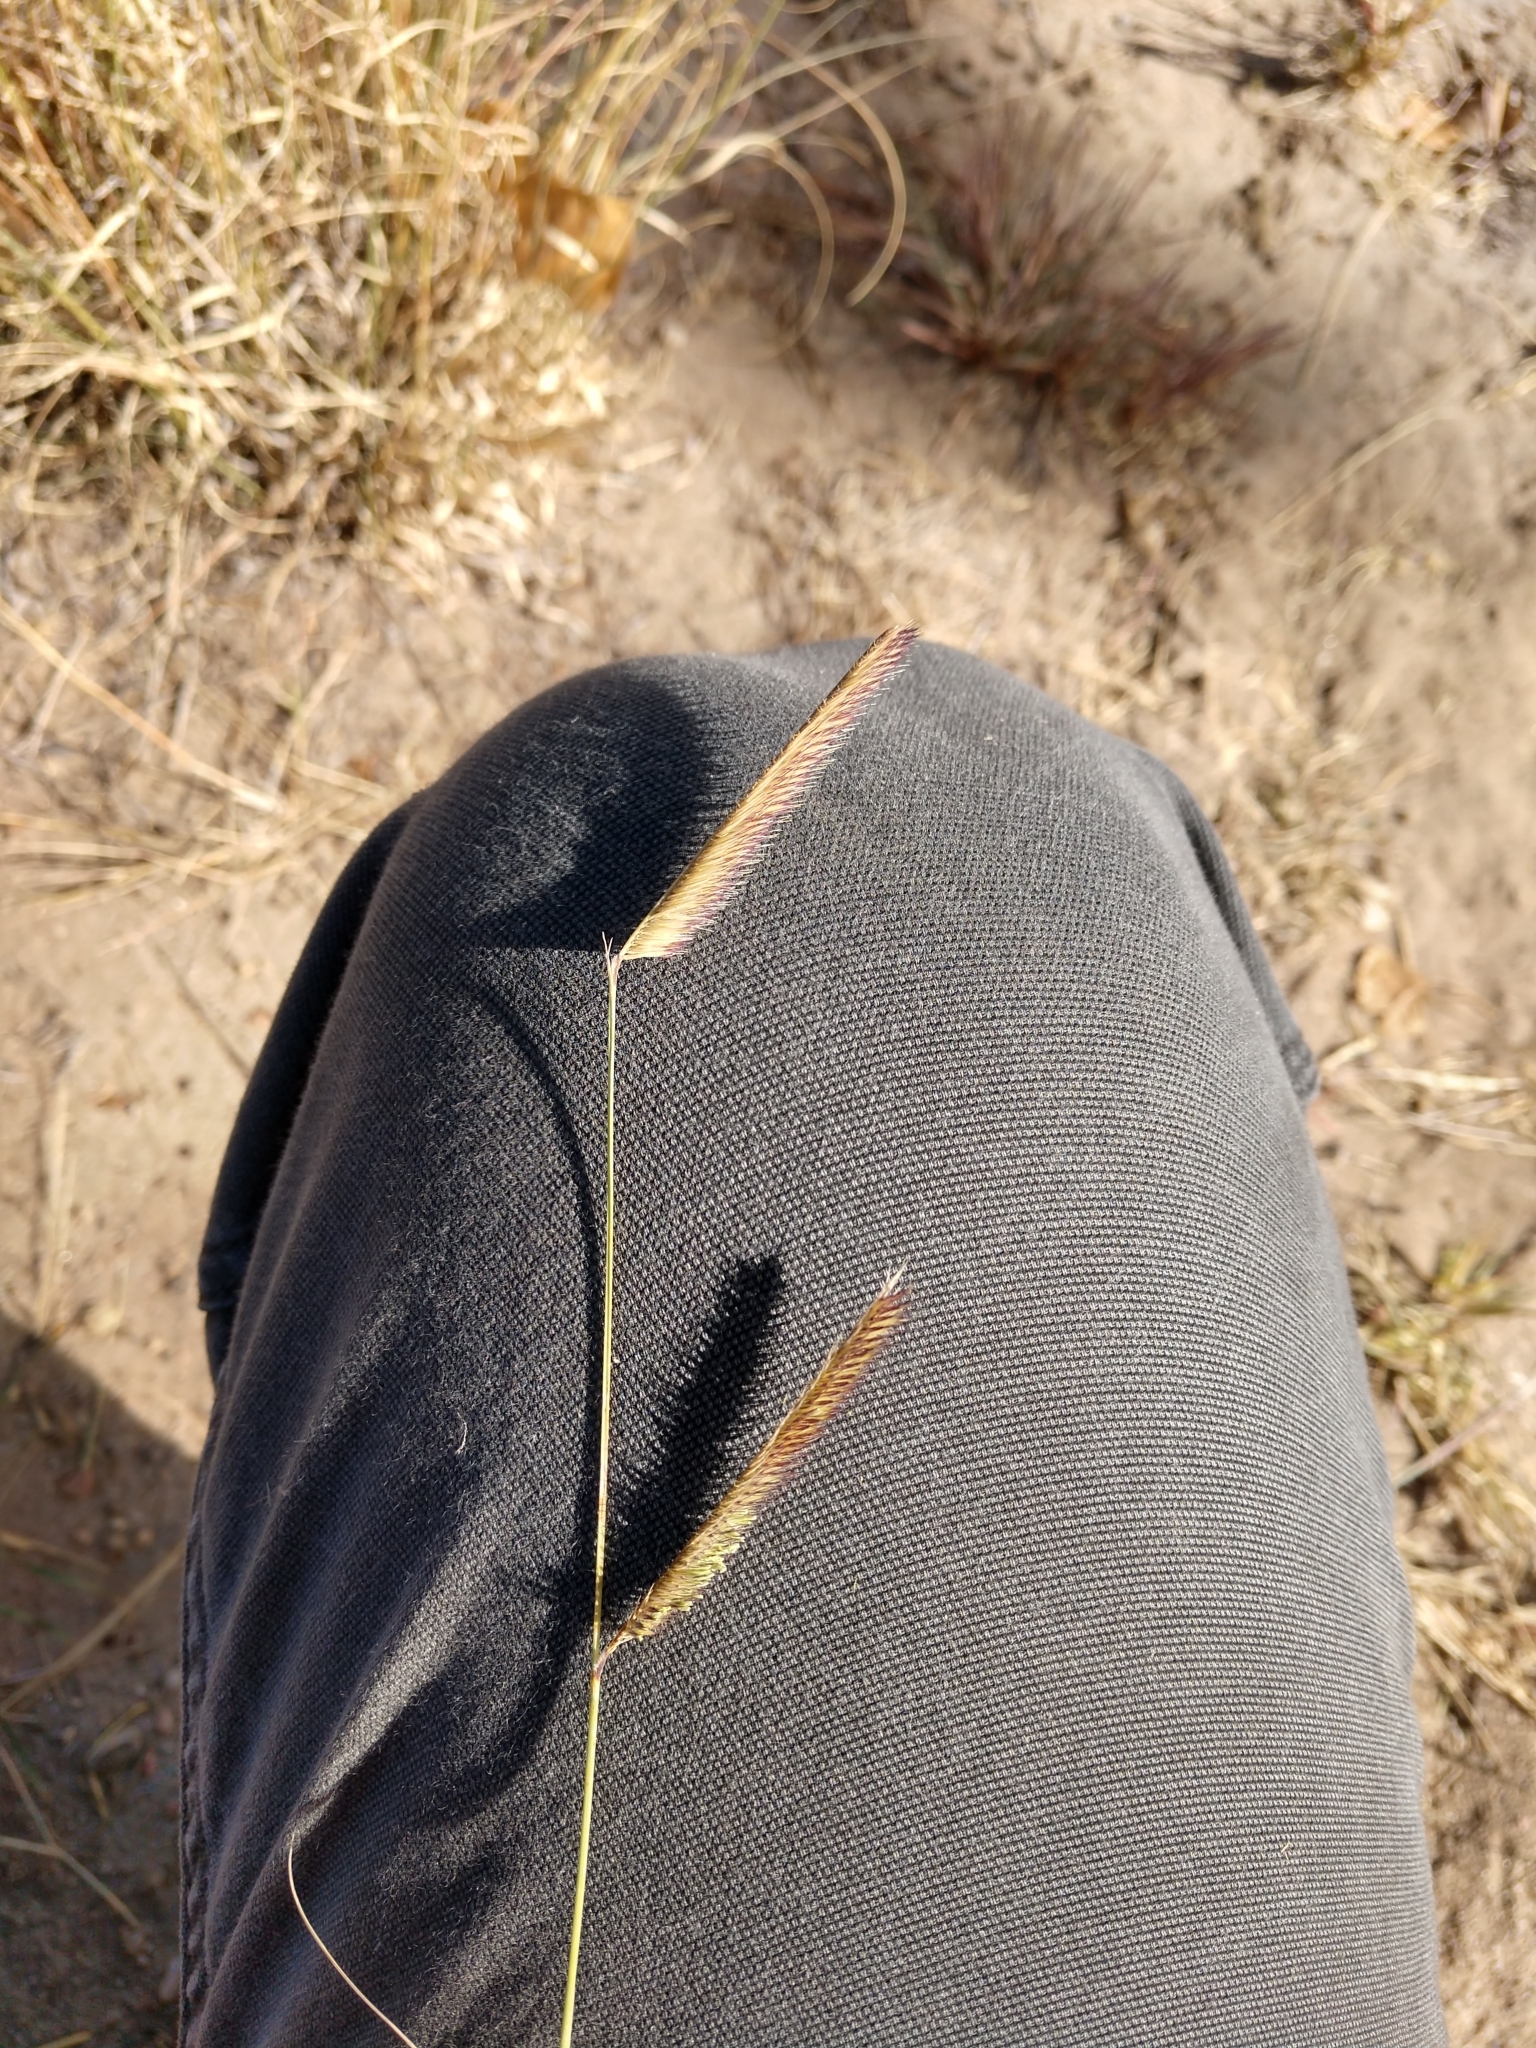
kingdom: Plantae
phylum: Tracheophyta
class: Liliopsida
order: Poales
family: Poaceae
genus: Bouteloua
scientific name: Bouteloua gracilis
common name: Blue grama
